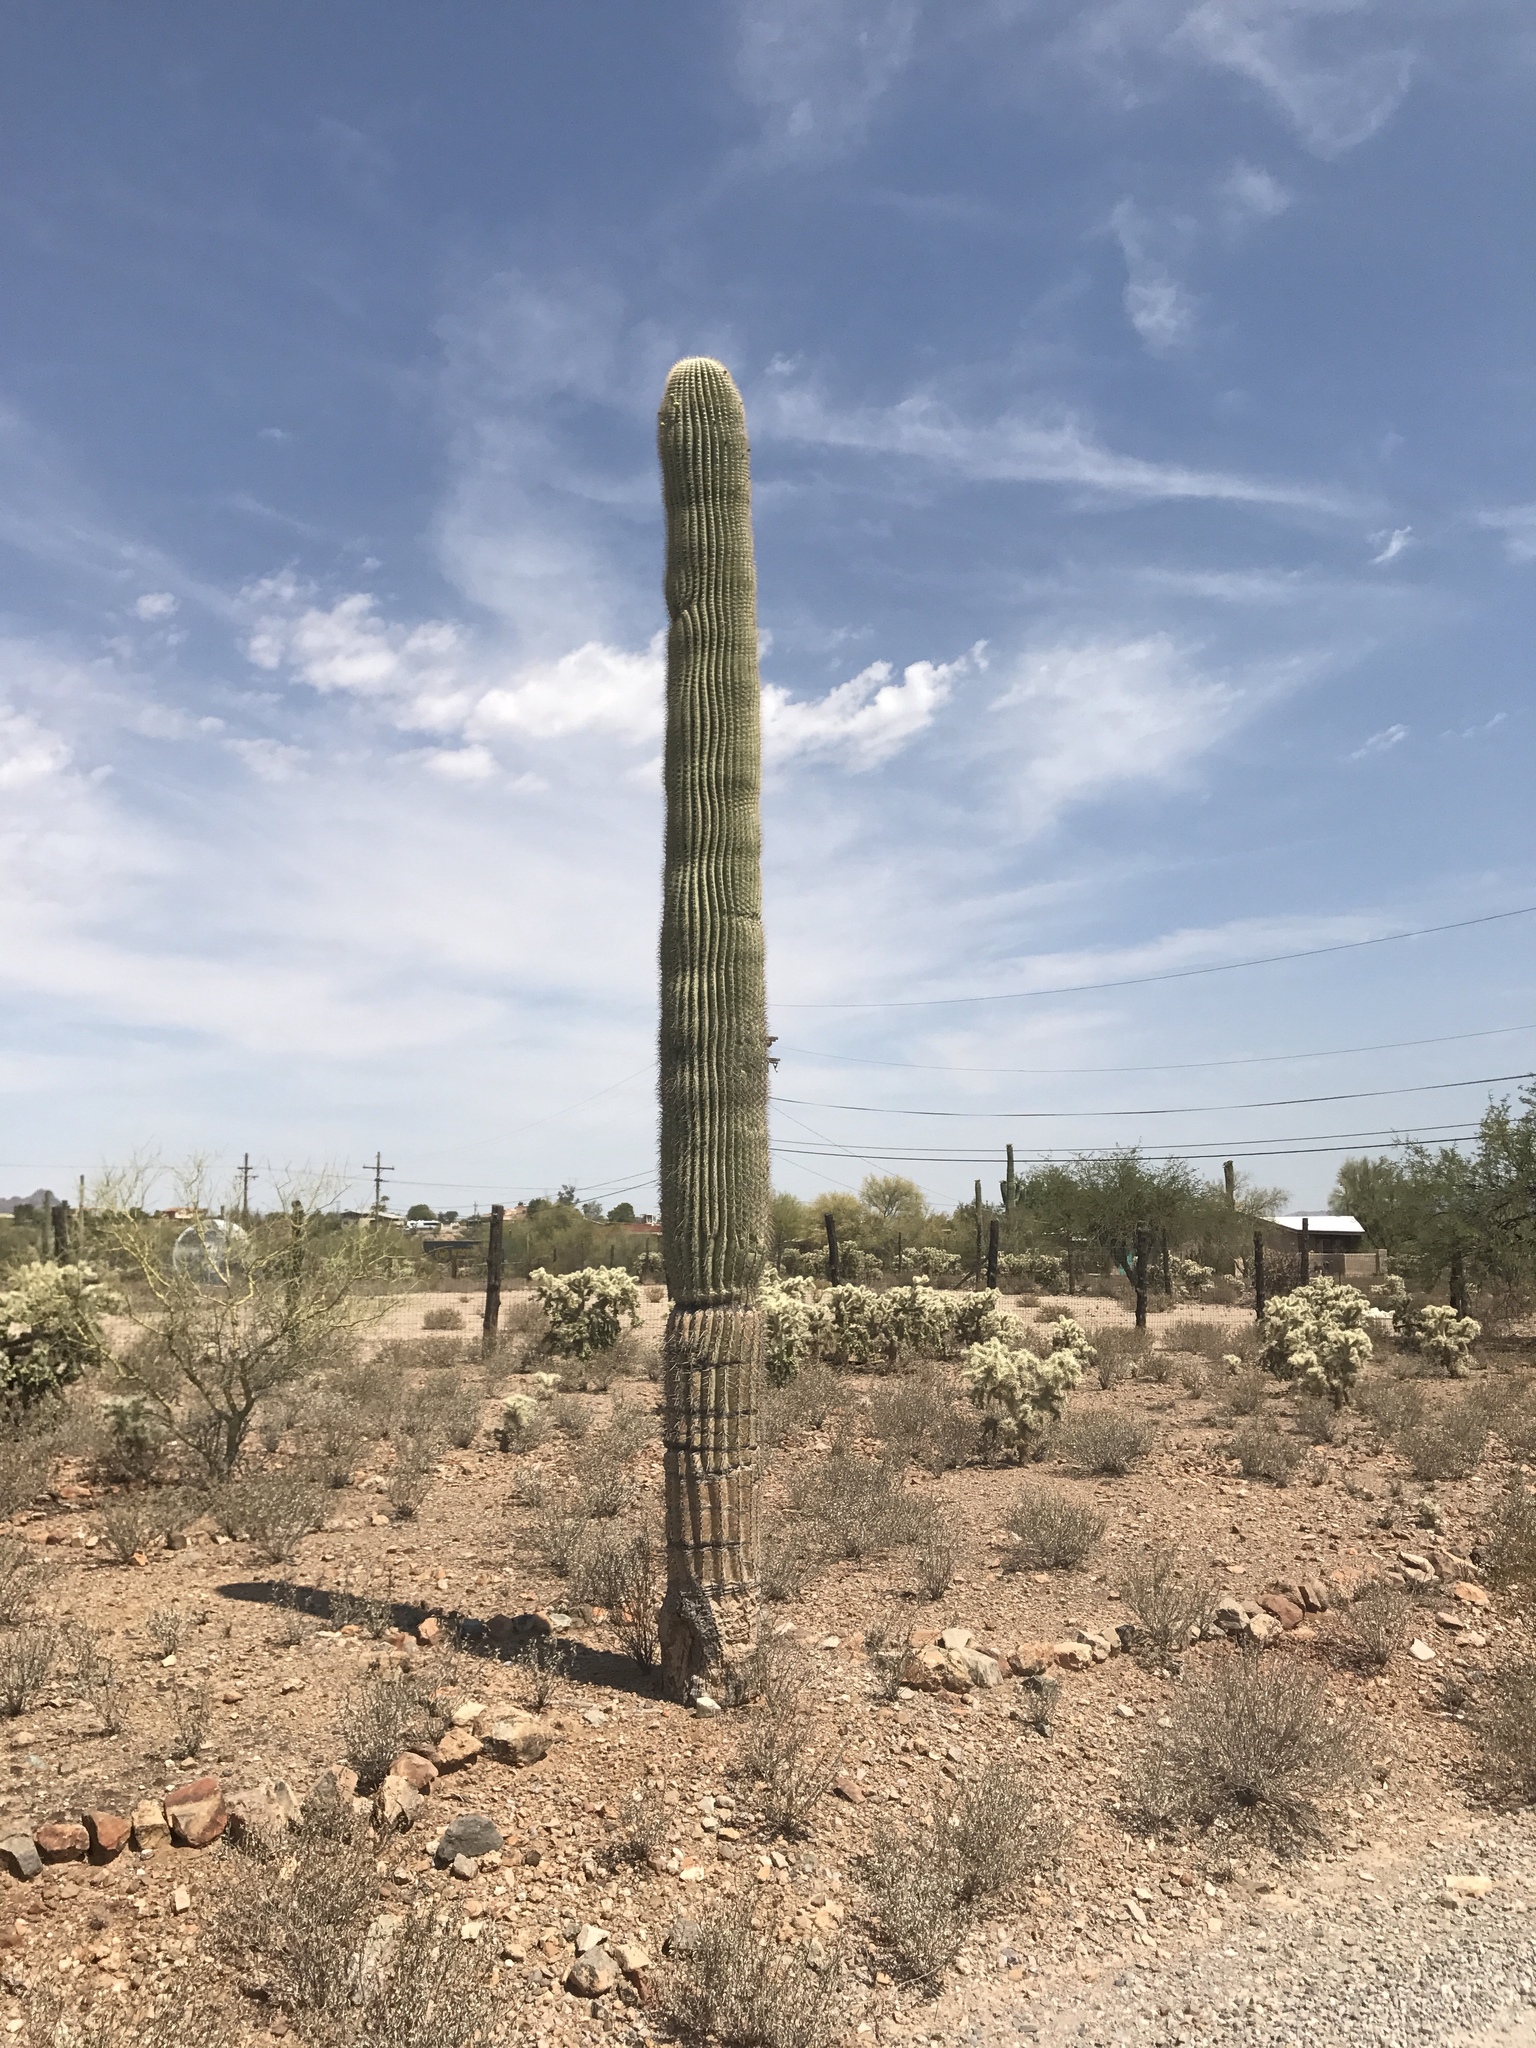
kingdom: Plantae
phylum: Tracheophyta
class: Magnoliopsida
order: Caryophyllales
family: Cactaceae
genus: Carnegiea
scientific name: Carnegiea gigantea
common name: Saguaro
